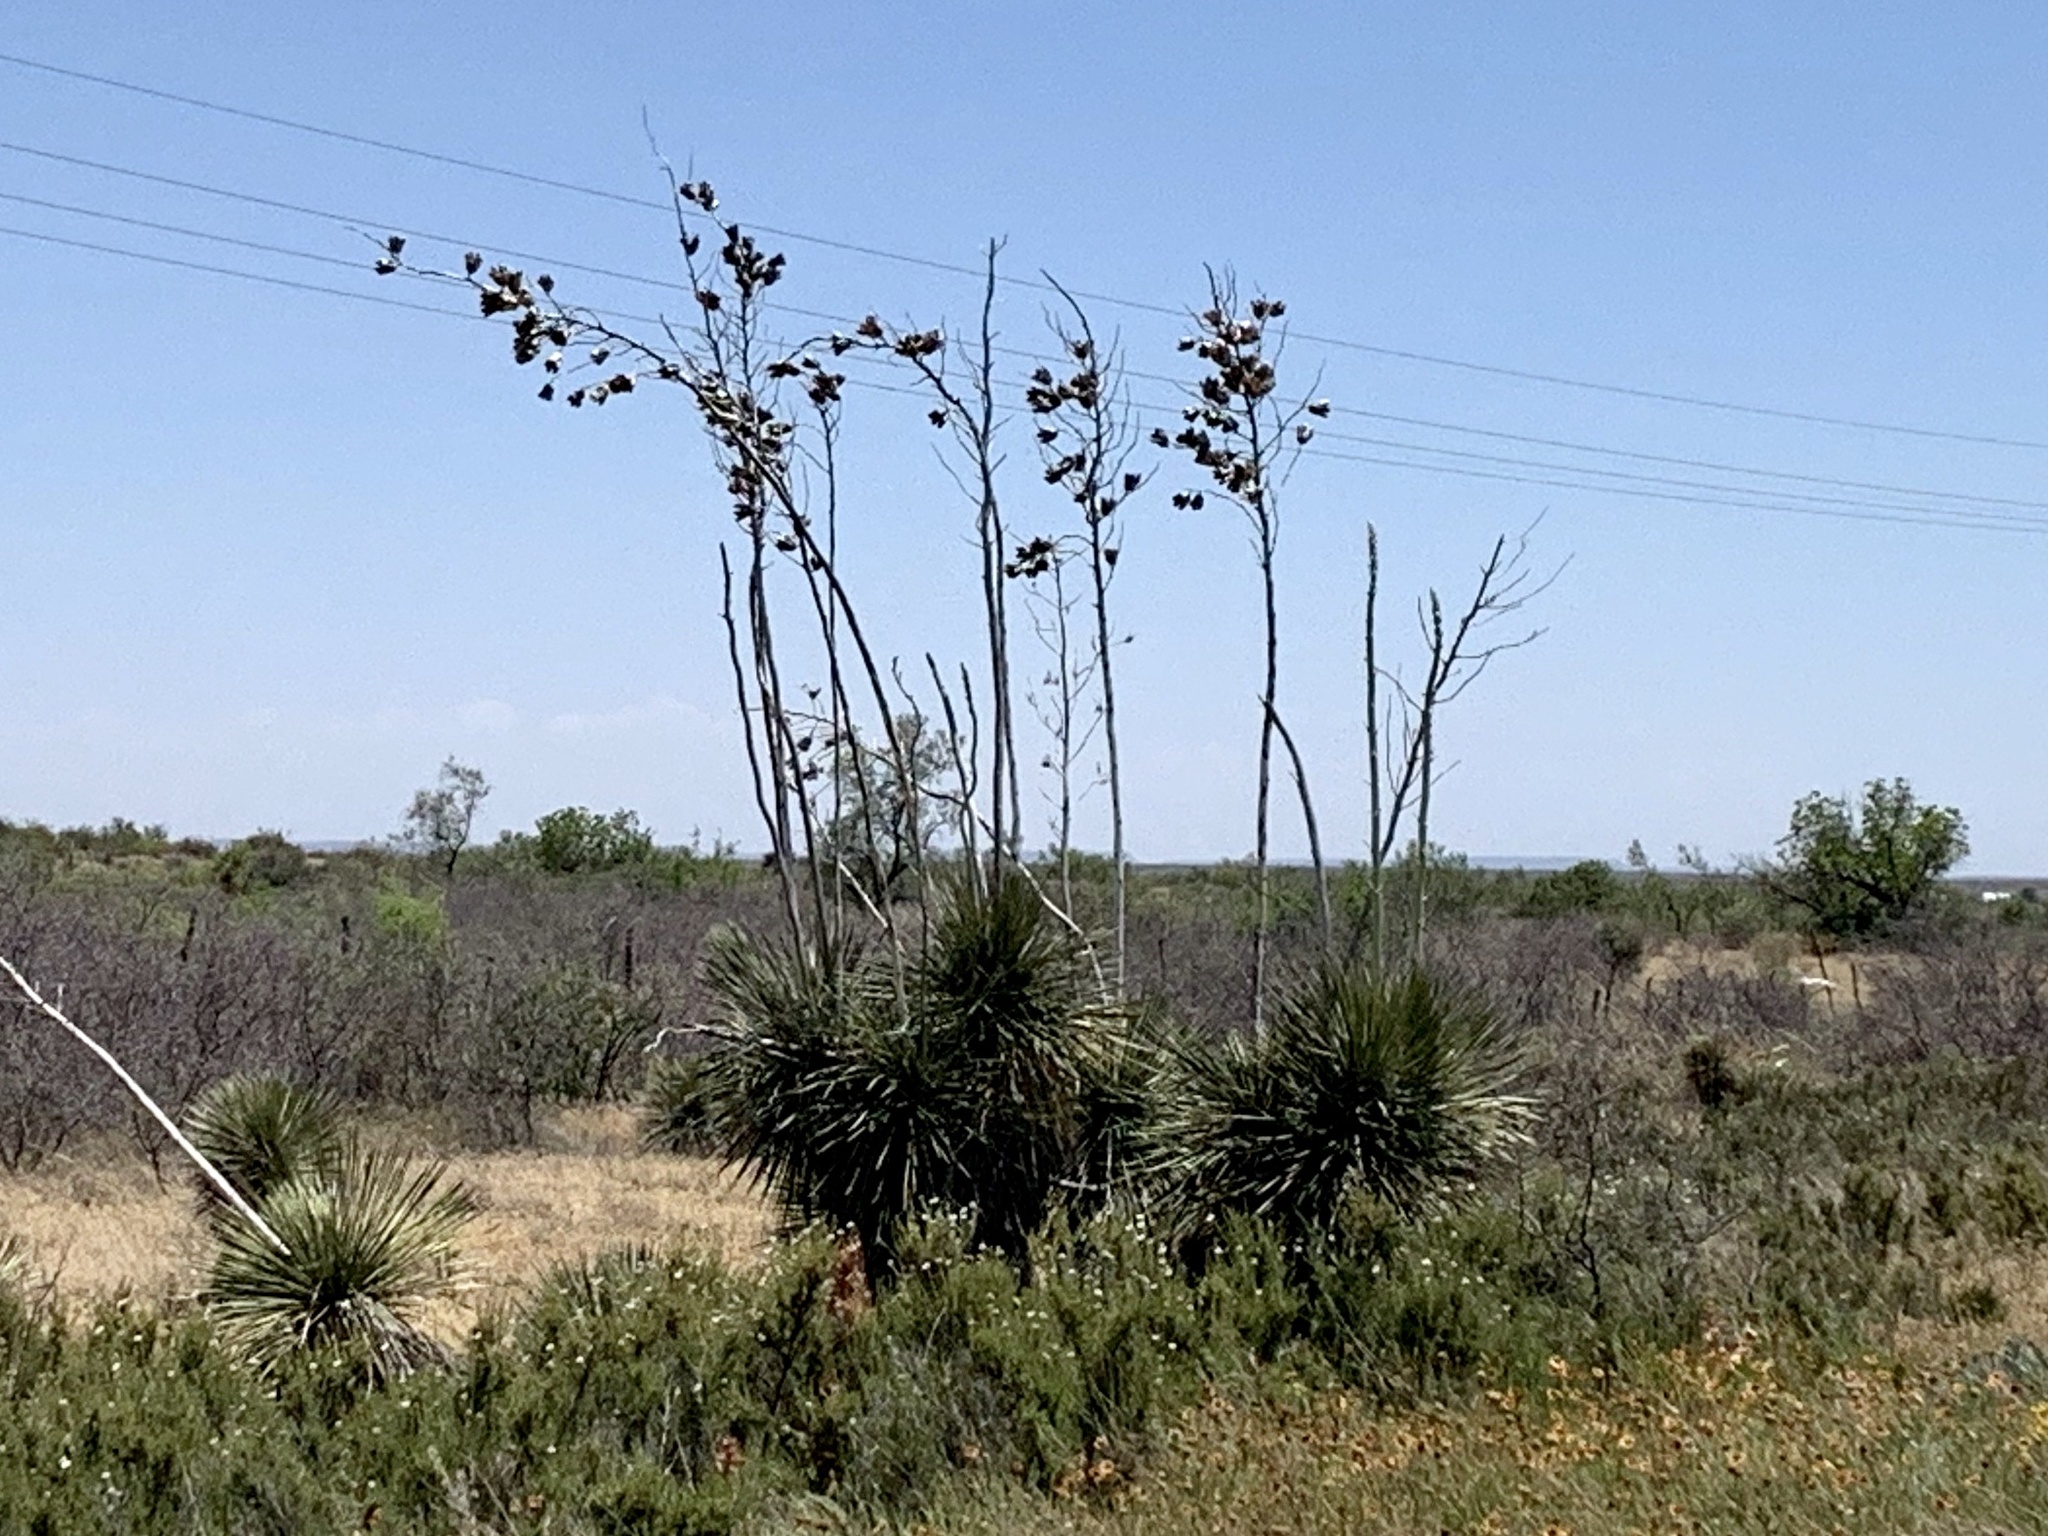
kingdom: Plantae
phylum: Tracheophyta
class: Liliopsida
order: Asparagales
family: Asparagaceae
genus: Yucca
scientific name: Yucca elata
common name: Palmella
